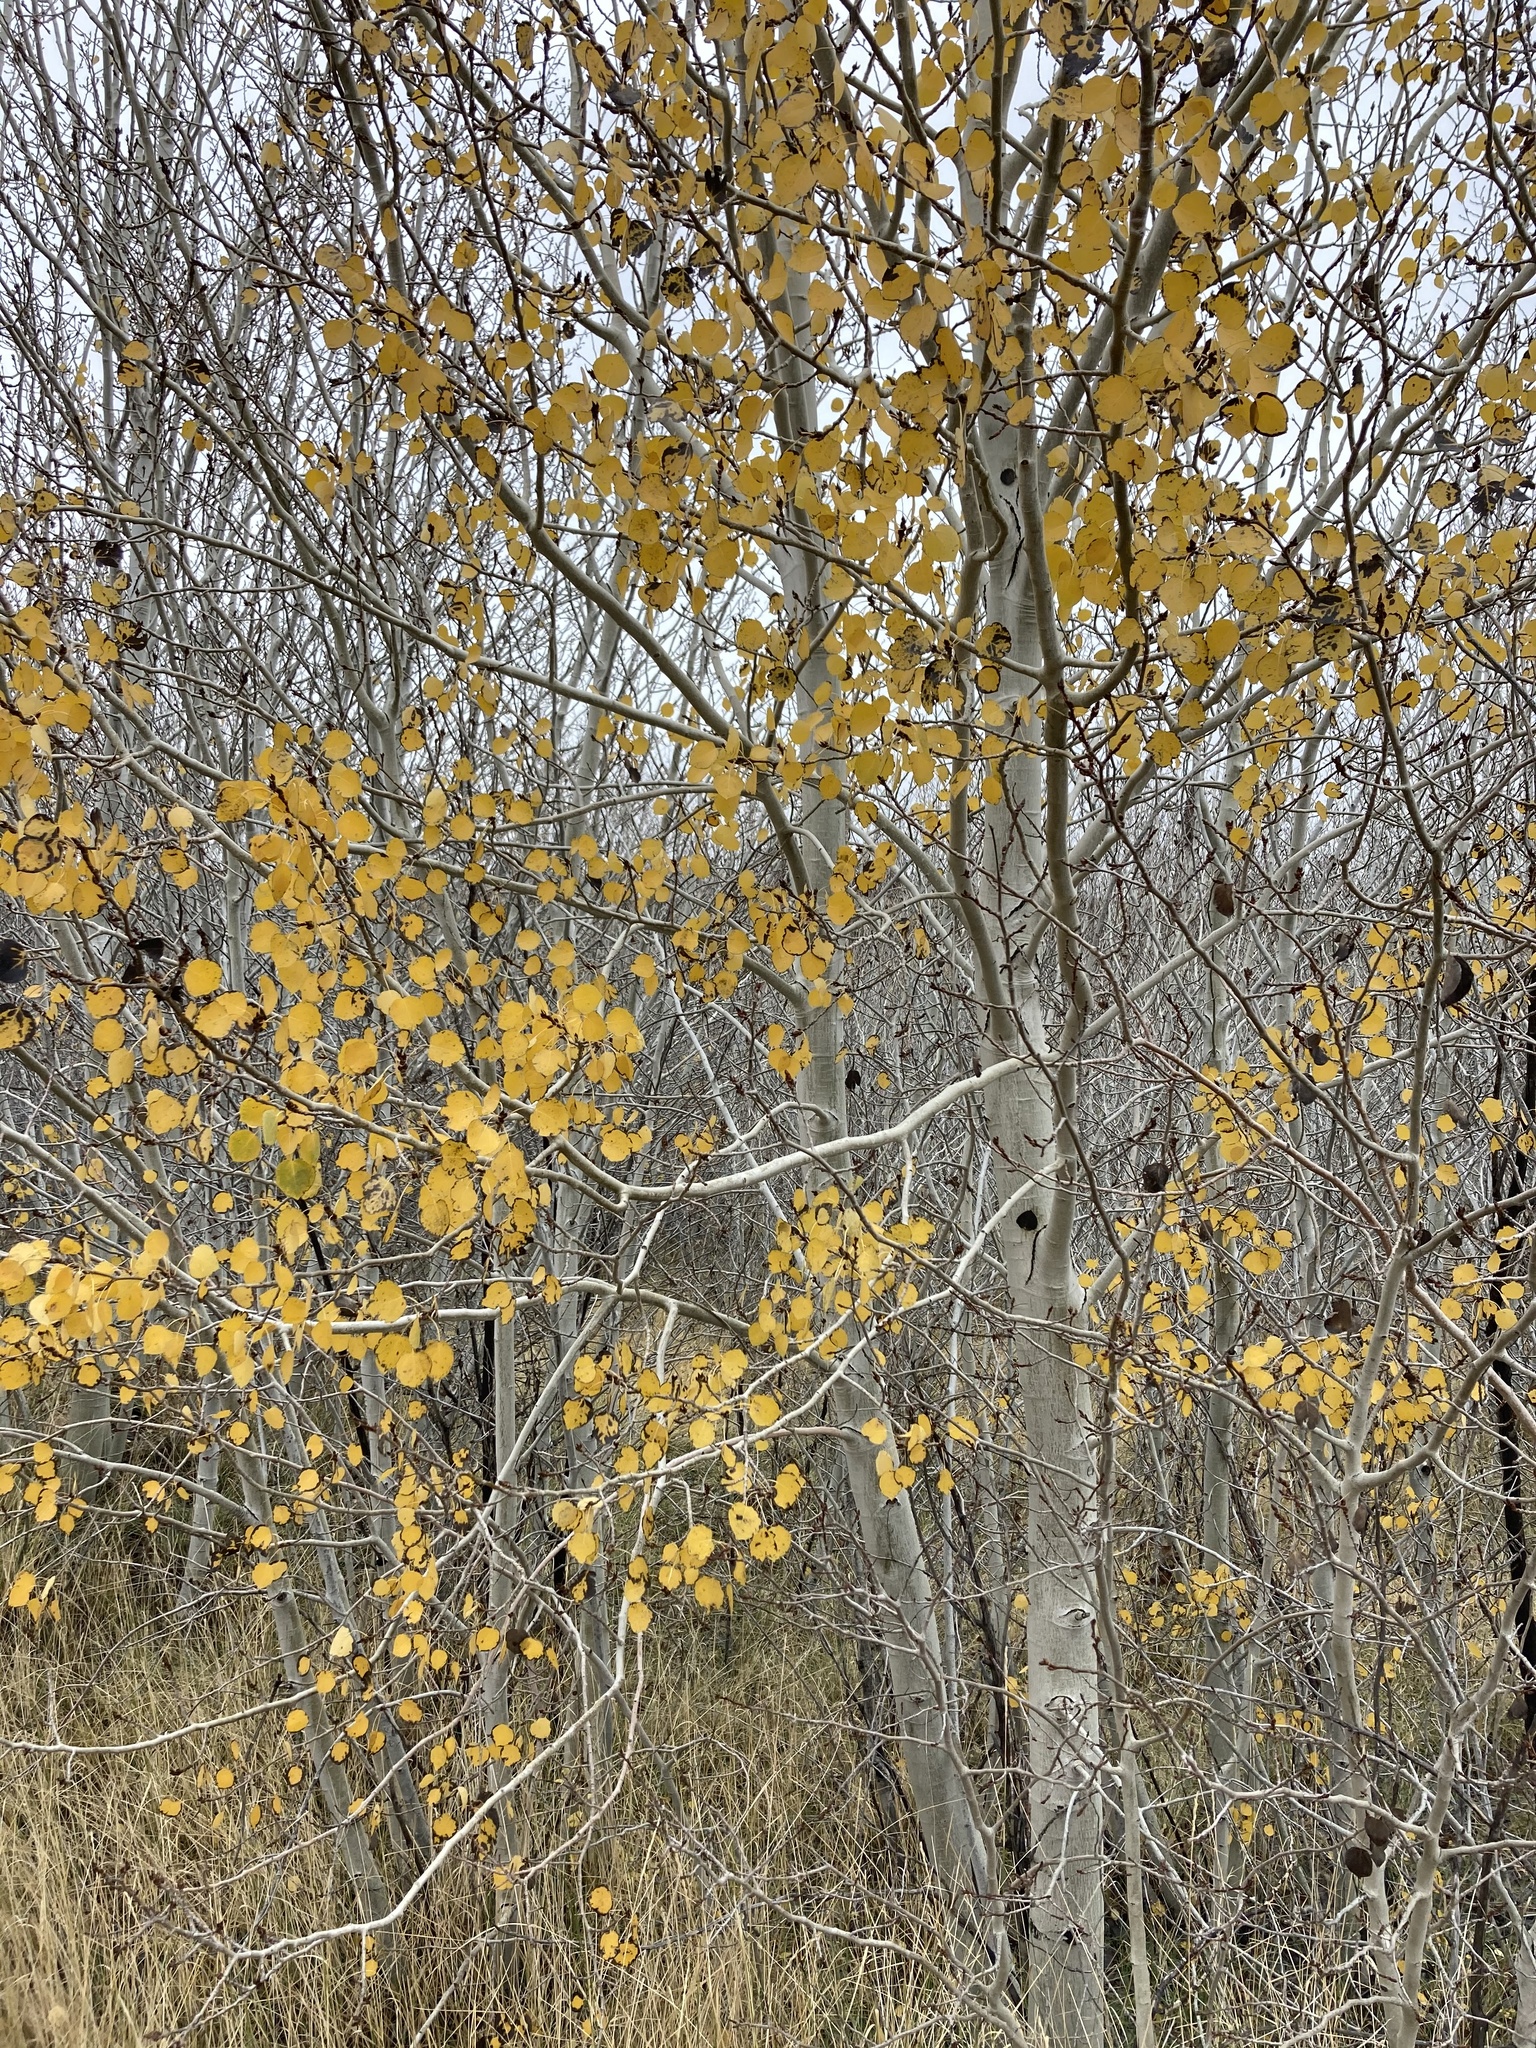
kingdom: Plantae
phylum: Tracheophyta
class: Magnoliopsida
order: Malpighiales
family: Salicaceae
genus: Populus
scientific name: Populus tremuloides
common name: Quaking aspen
